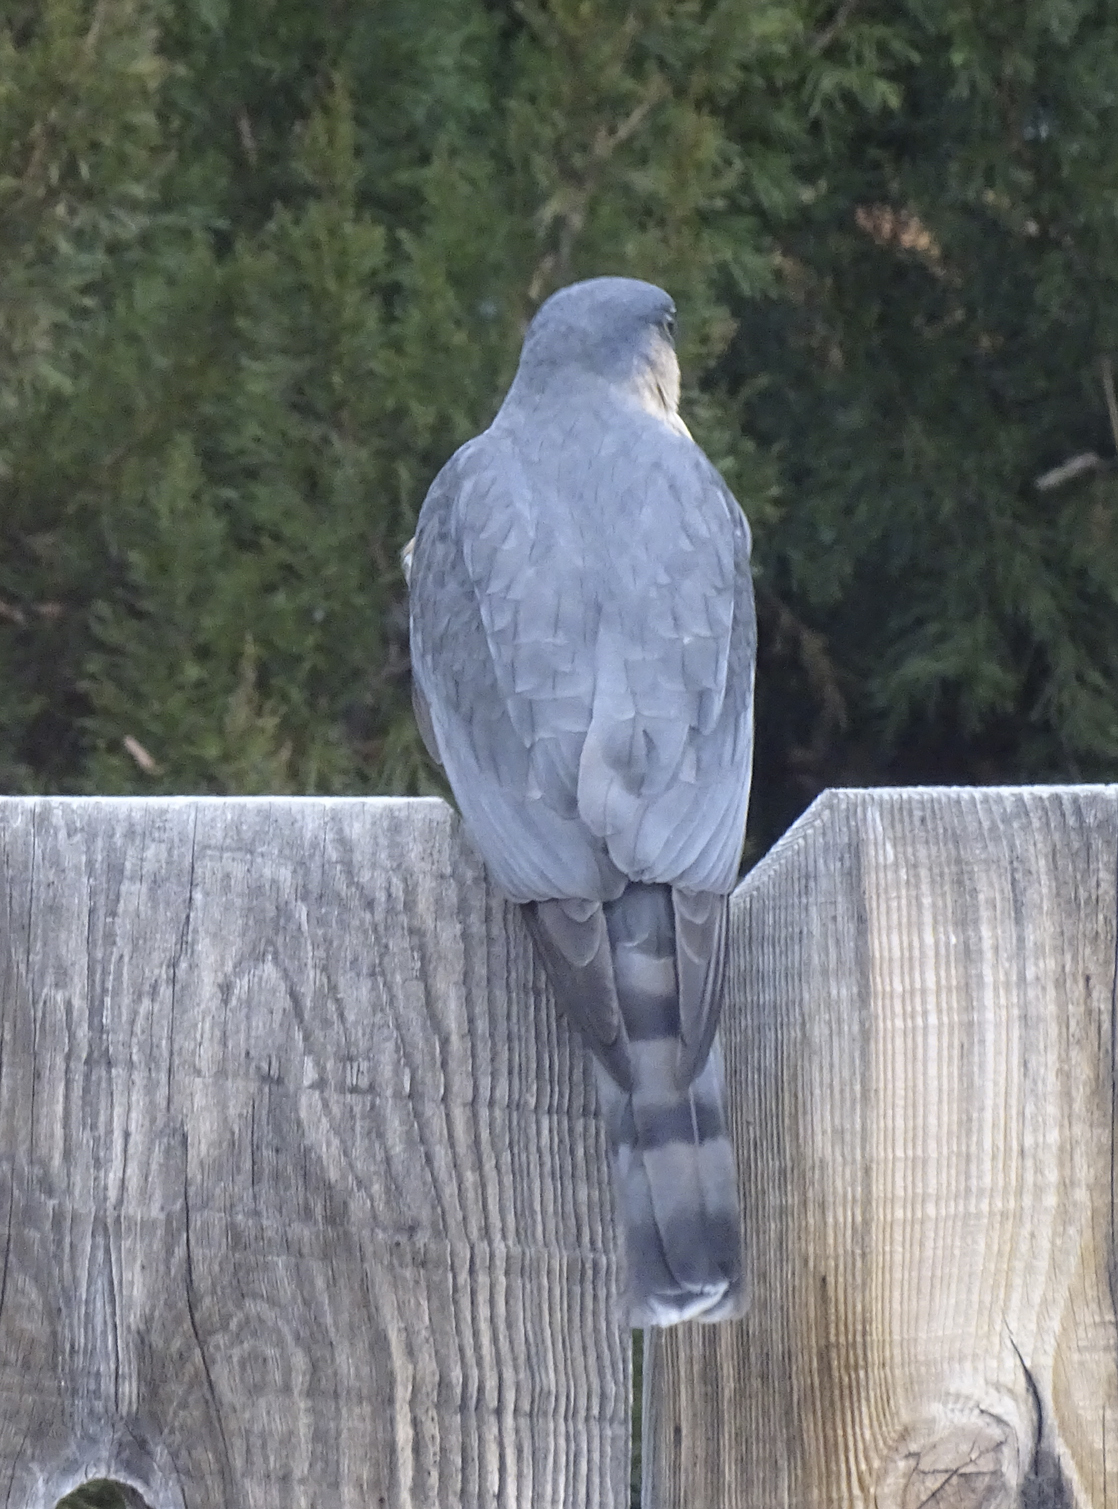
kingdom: Animalia
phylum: Chordata
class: Aves
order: Accipitriformes
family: Accipitridae
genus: Accipiter
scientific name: Accipiter striatus
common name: Sharp-shinned hawk
